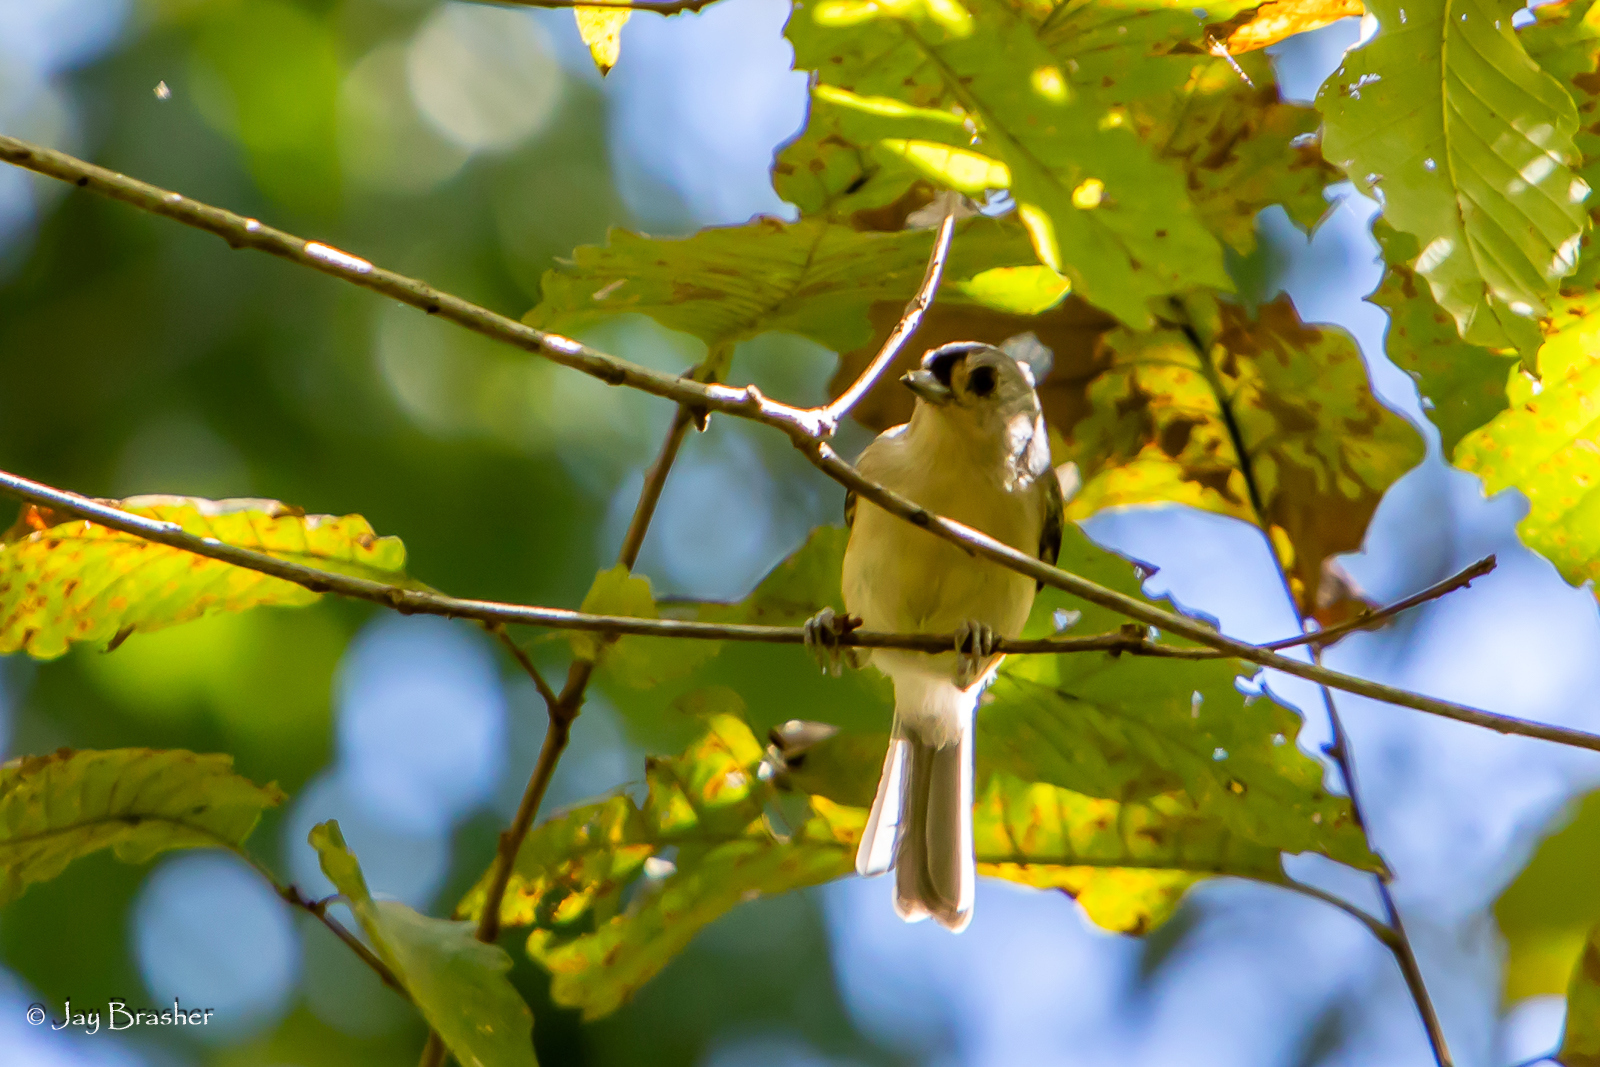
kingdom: Animalia
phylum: Chordata
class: Aves
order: Passeriformes
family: Paridae
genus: Baeolophus
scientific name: Baeolophus bicolor
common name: Tufted titmouse
